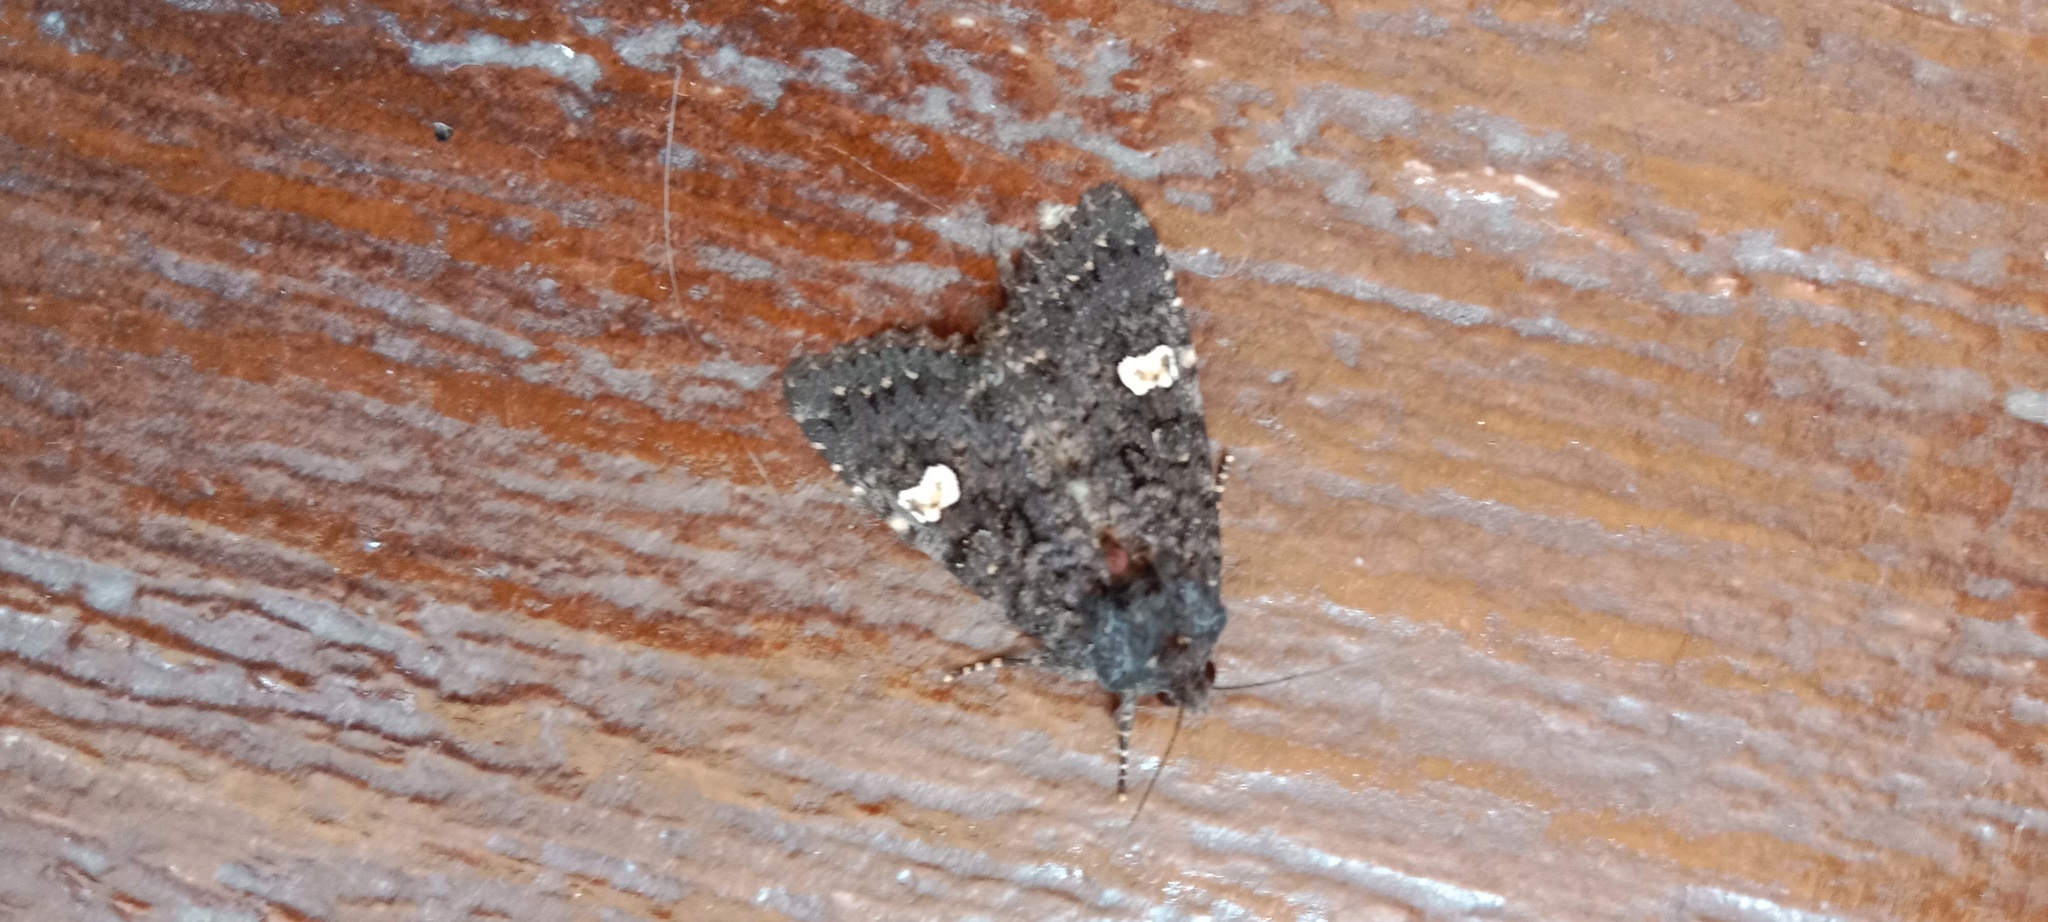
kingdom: Animalia
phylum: Arthropoda
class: Insecta
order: Lepidoptera
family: Noctuidae
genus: Melanchra
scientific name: Melanchra persicariae
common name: Dot moth
